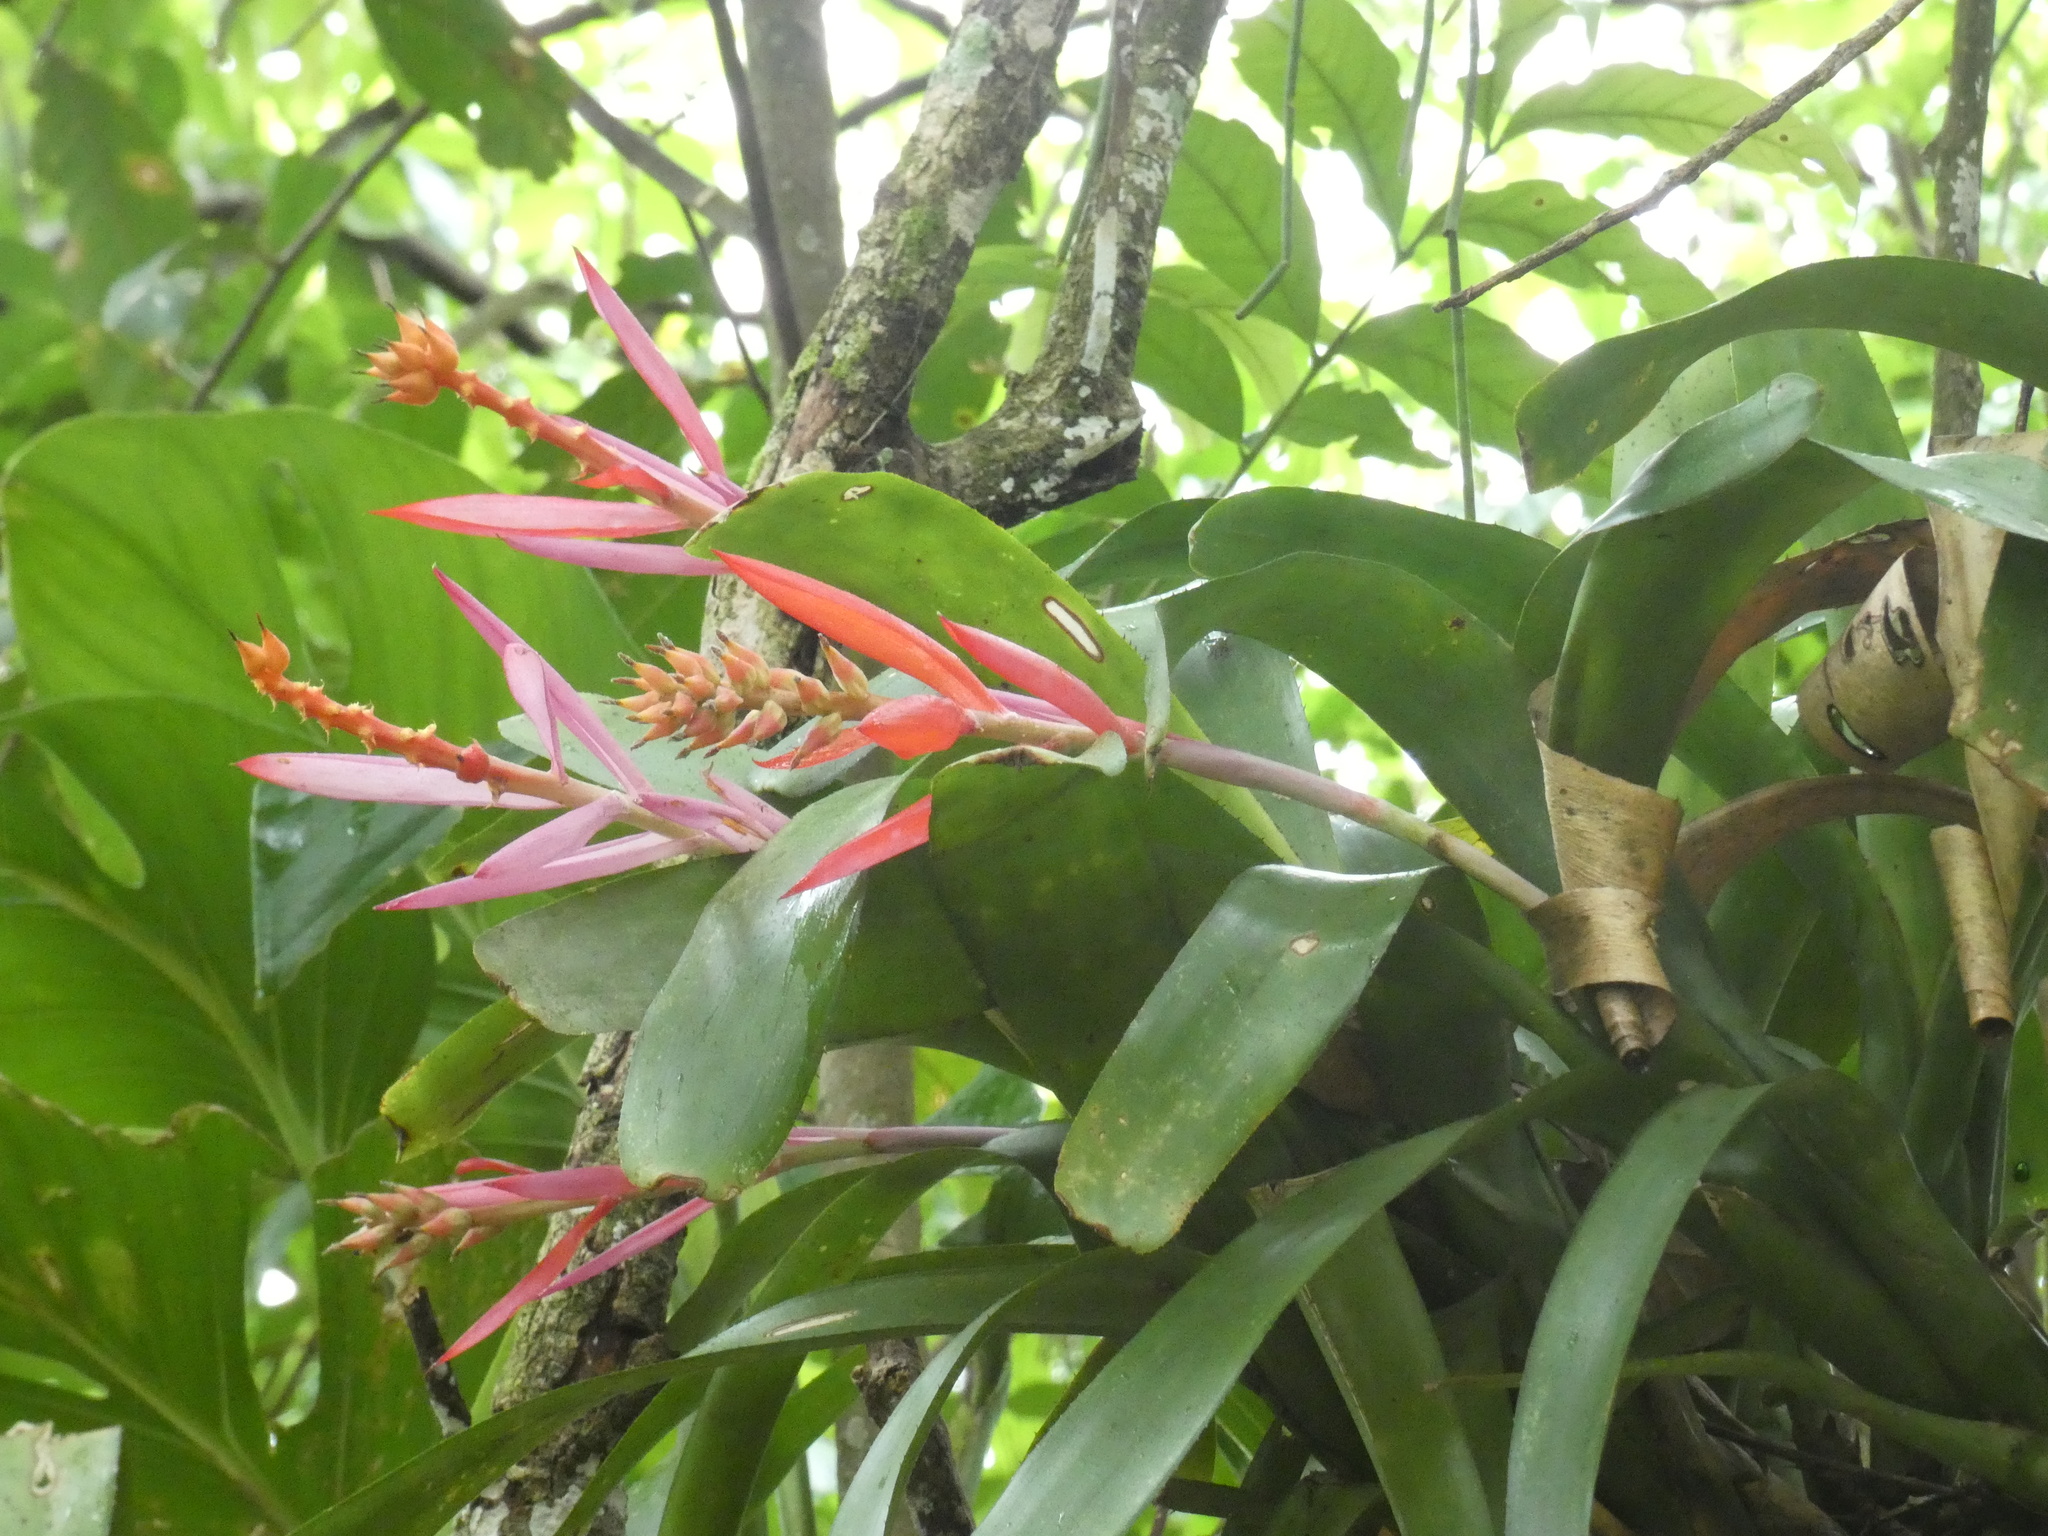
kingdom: Plantae
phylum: Tracheophyta
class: Liliopsida
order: Poales
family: Bromeliaceae
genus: Aechmea
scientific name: Aechmea nudicaulis
